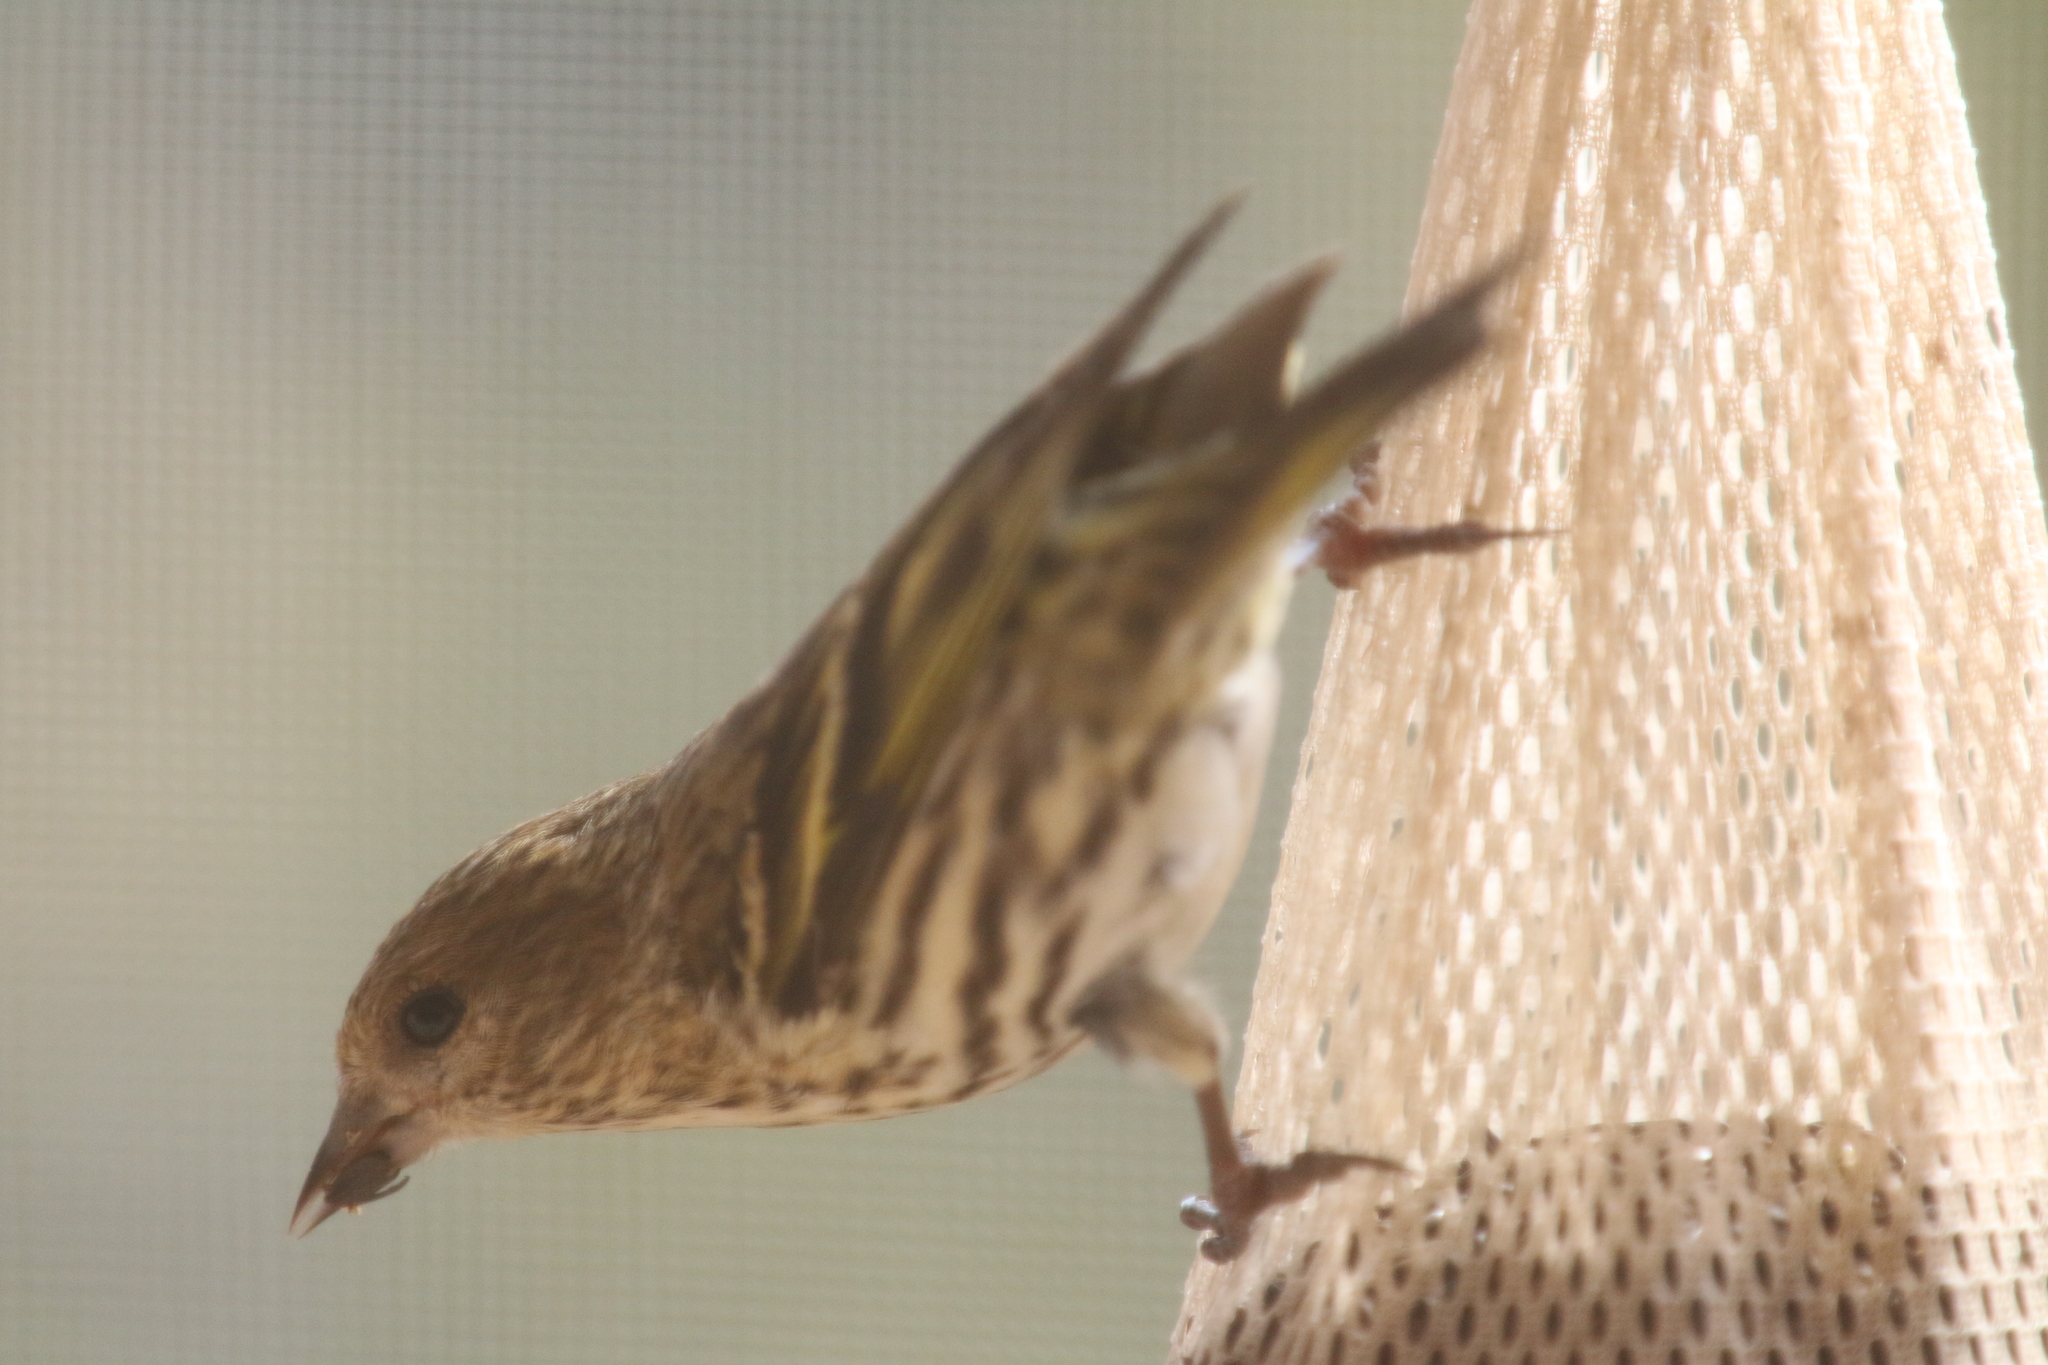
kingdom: Animalia
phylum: Chordata
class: Aves
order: Passeriformes
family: Fringillidae
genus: Spinus
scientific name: Spinus pinus
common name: Pine siskin
